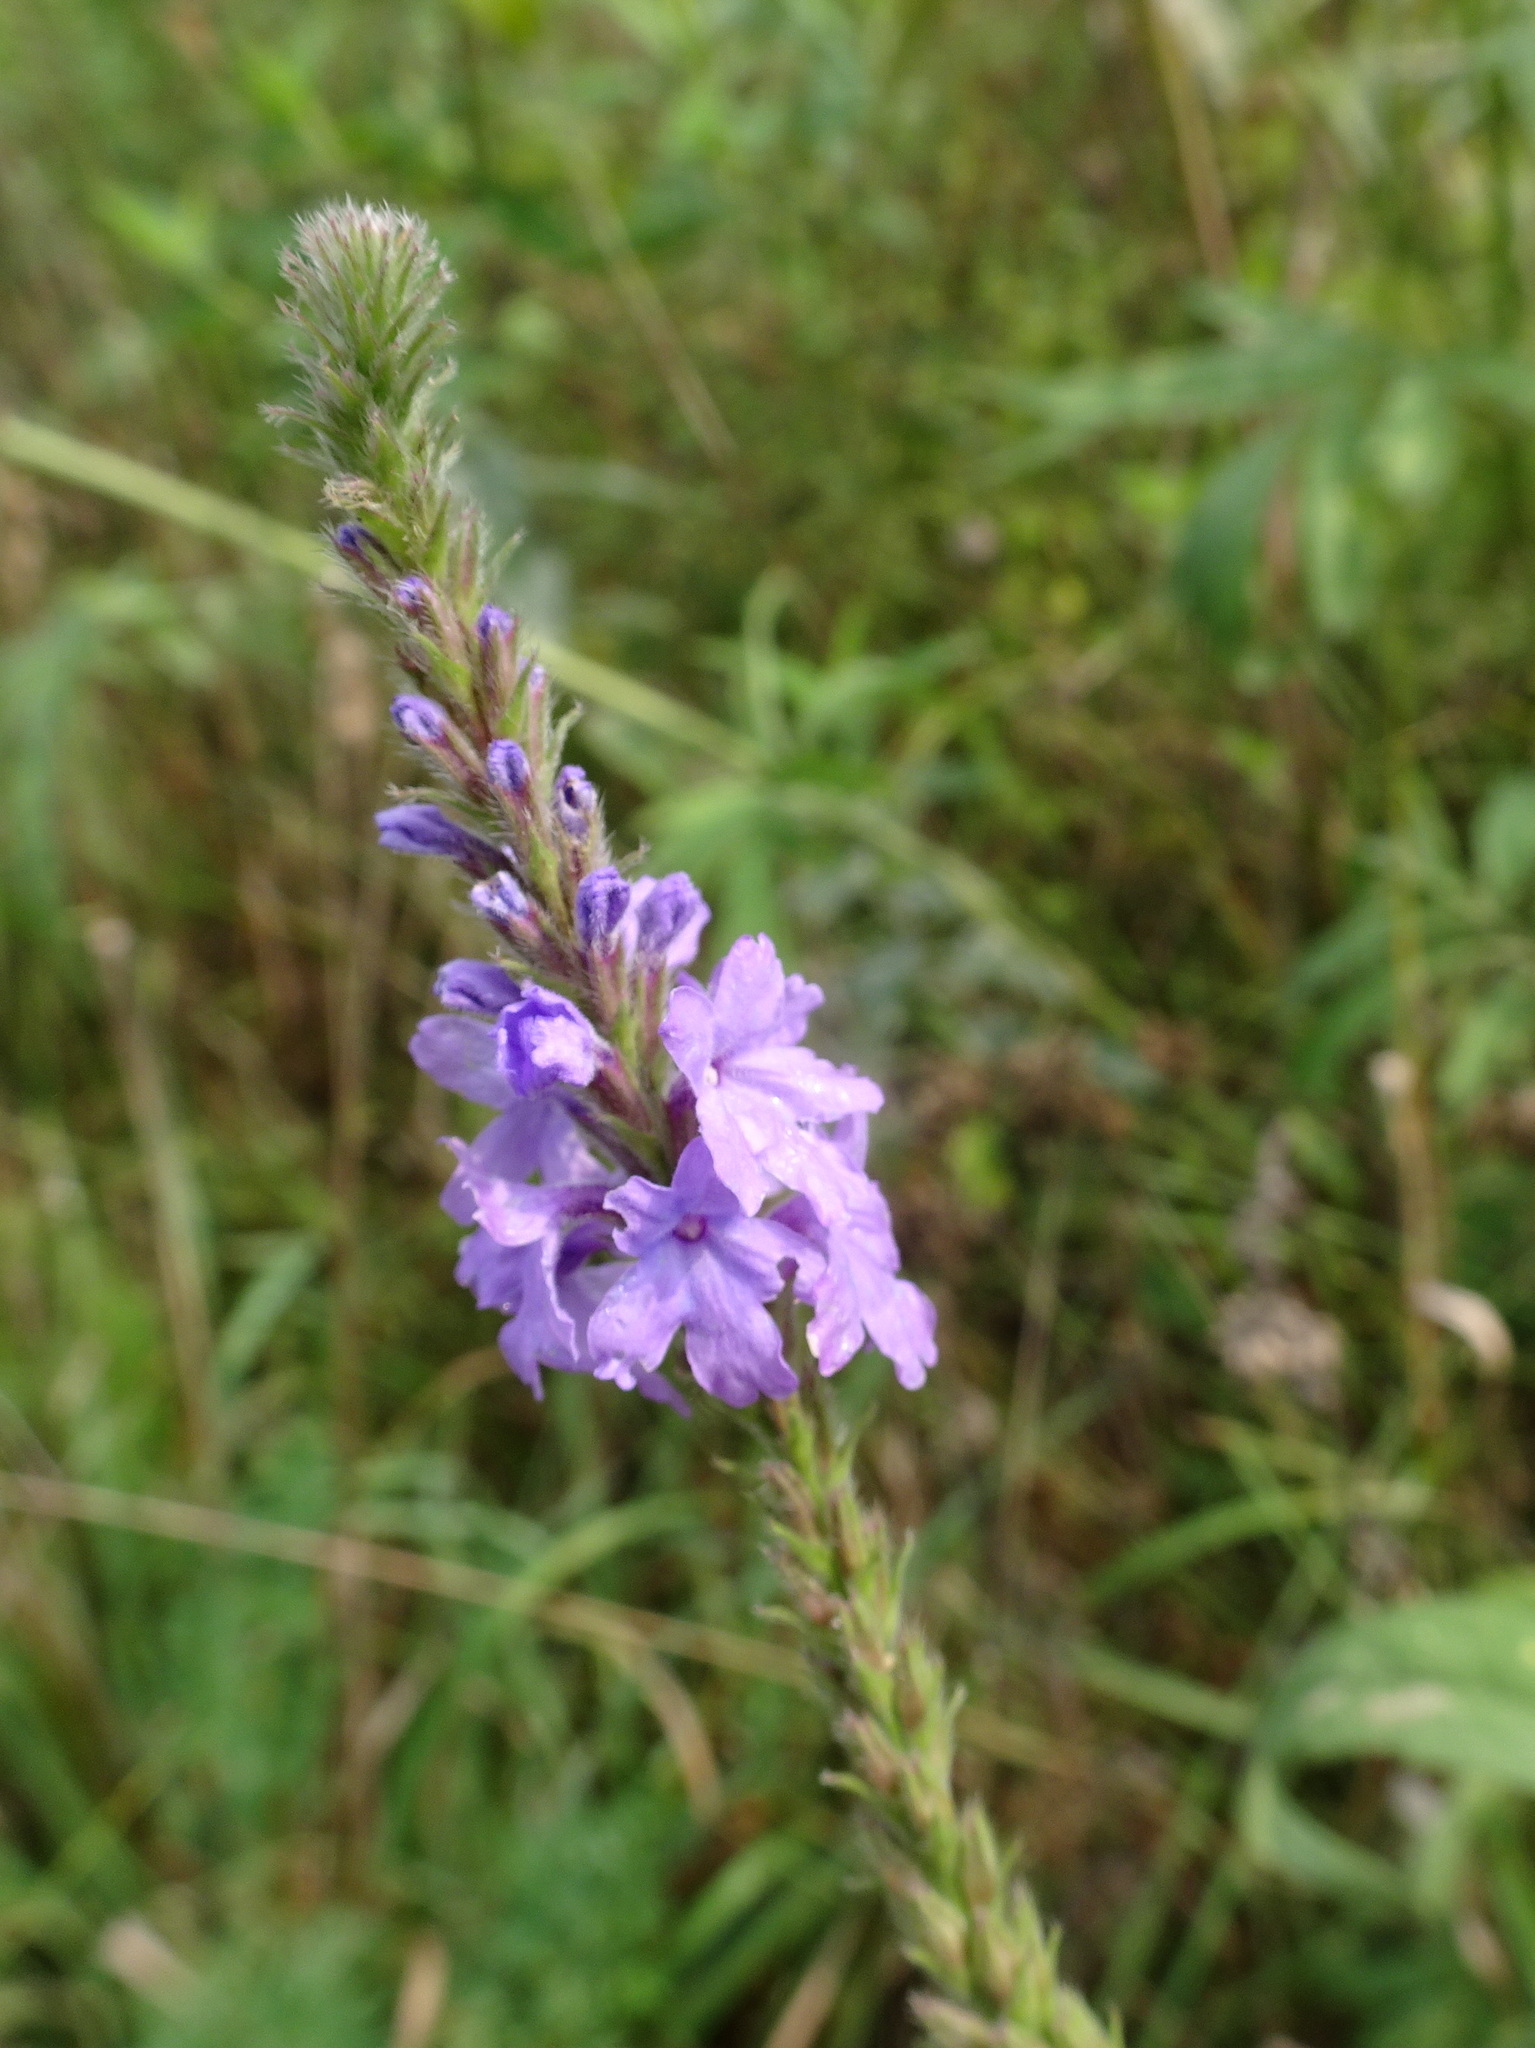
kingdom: Plantae
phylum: Tracheophyta
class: Magnoliopsida
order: Lamiales
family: Verbenaceae
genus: Verbena
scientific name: Verbena stricta
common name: Hoary vervain
